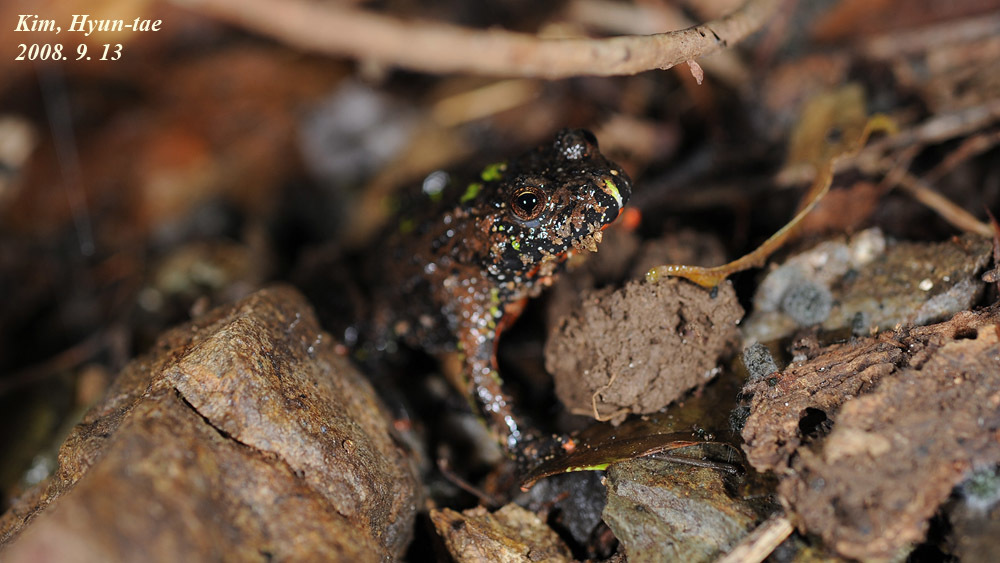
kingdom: Animalia
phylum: Chordata
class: Amphibia
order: Anura
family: Bombinatoridae
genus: Bombina
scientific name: Bombina orientalis
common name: Oriental firebelly toad
